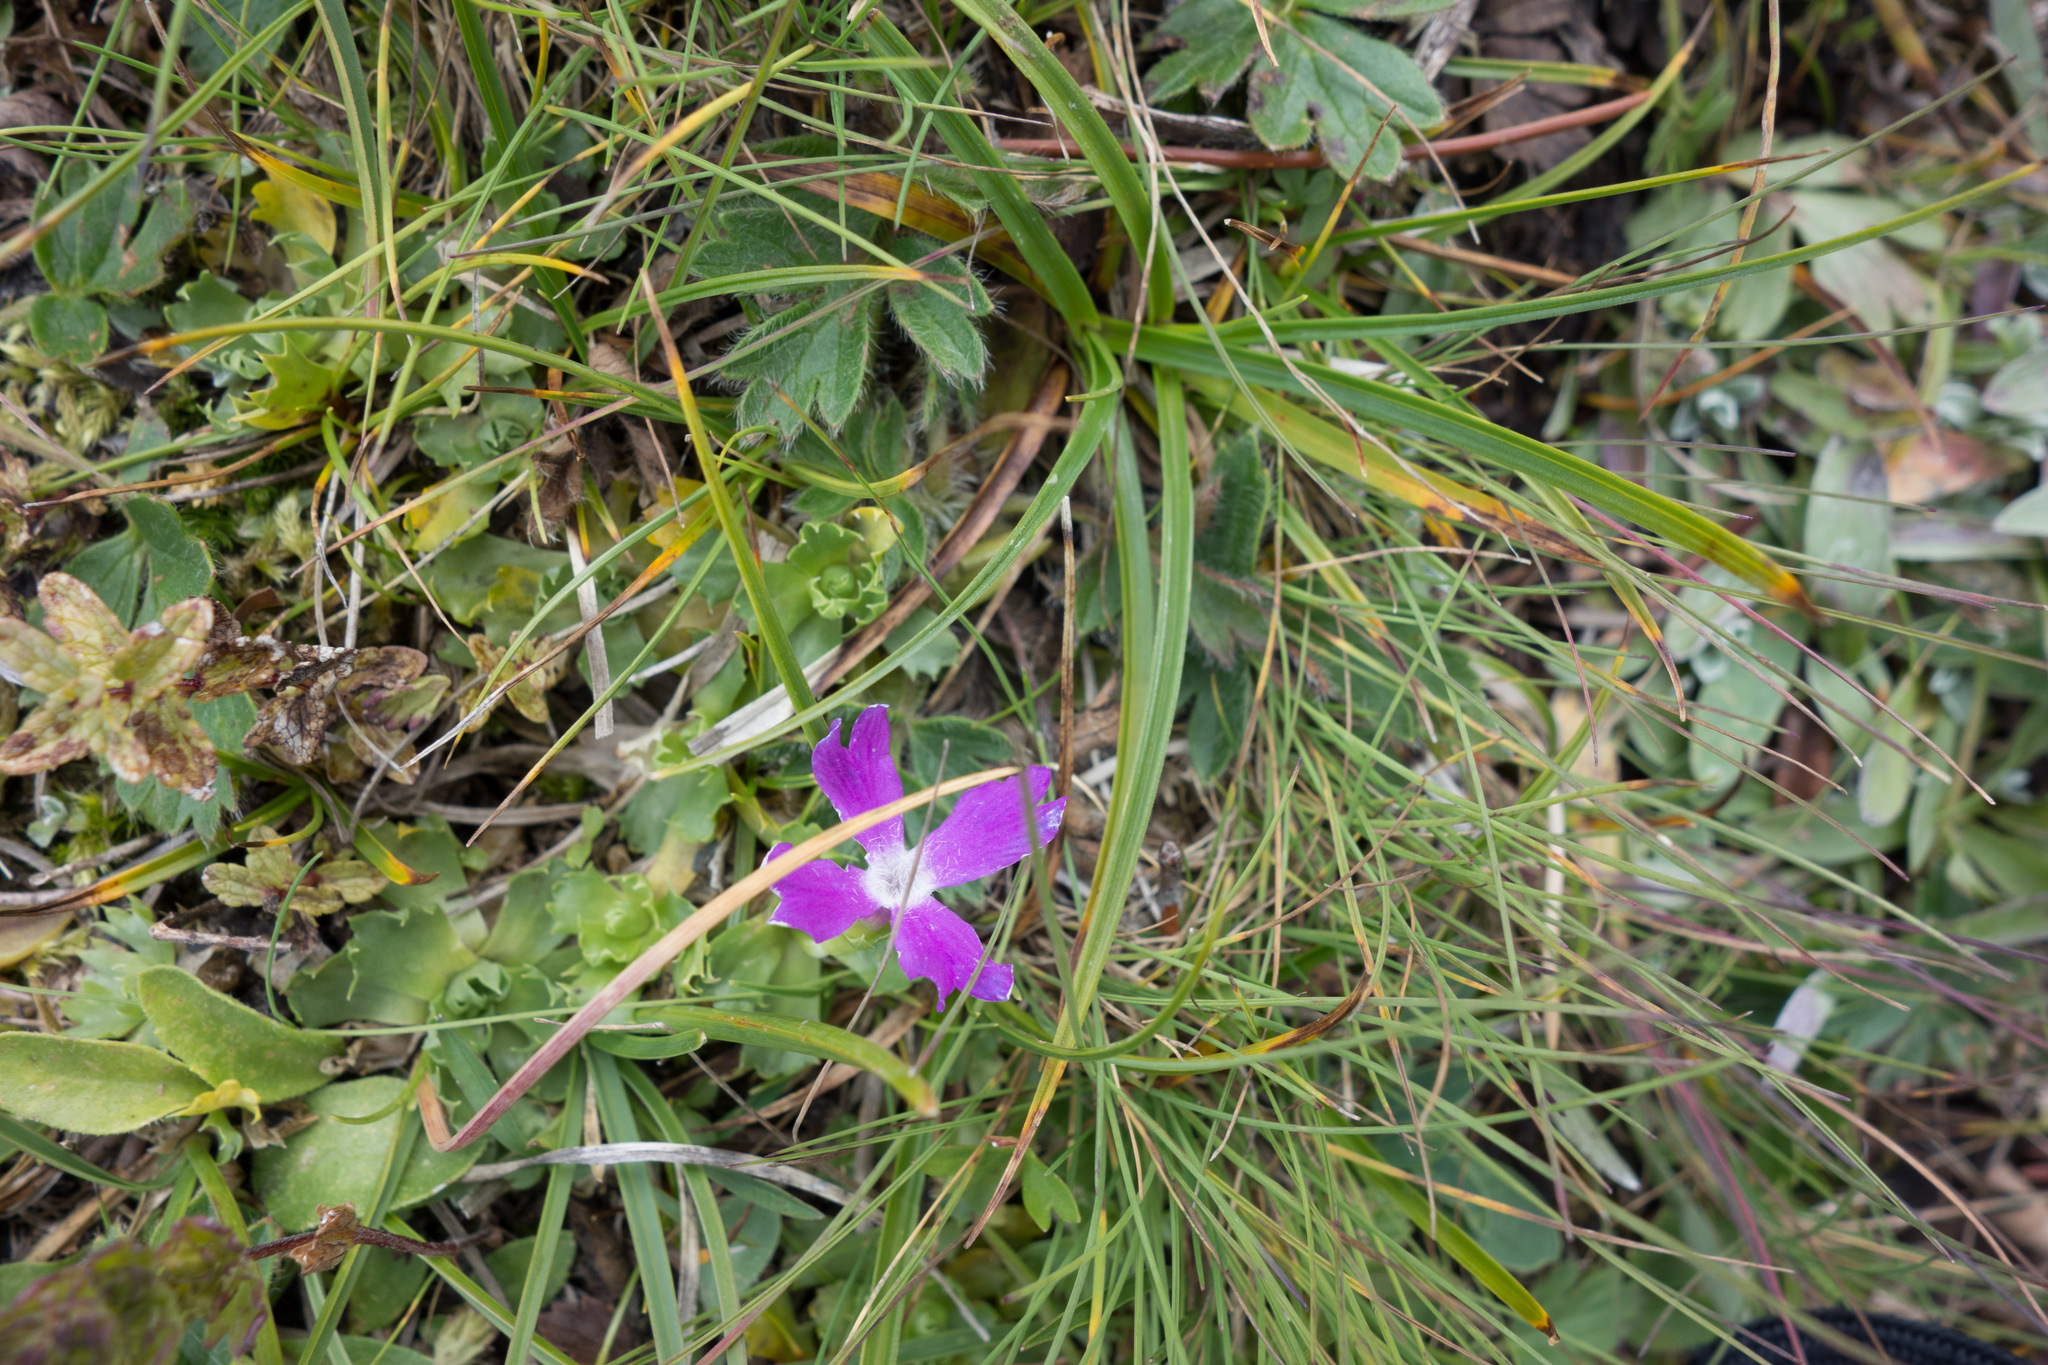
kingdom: Plantae
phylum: Tracheophyta
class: Magnoliopsida
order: Ericales
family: Primulaceae
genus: Primula
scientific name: Primula minima
